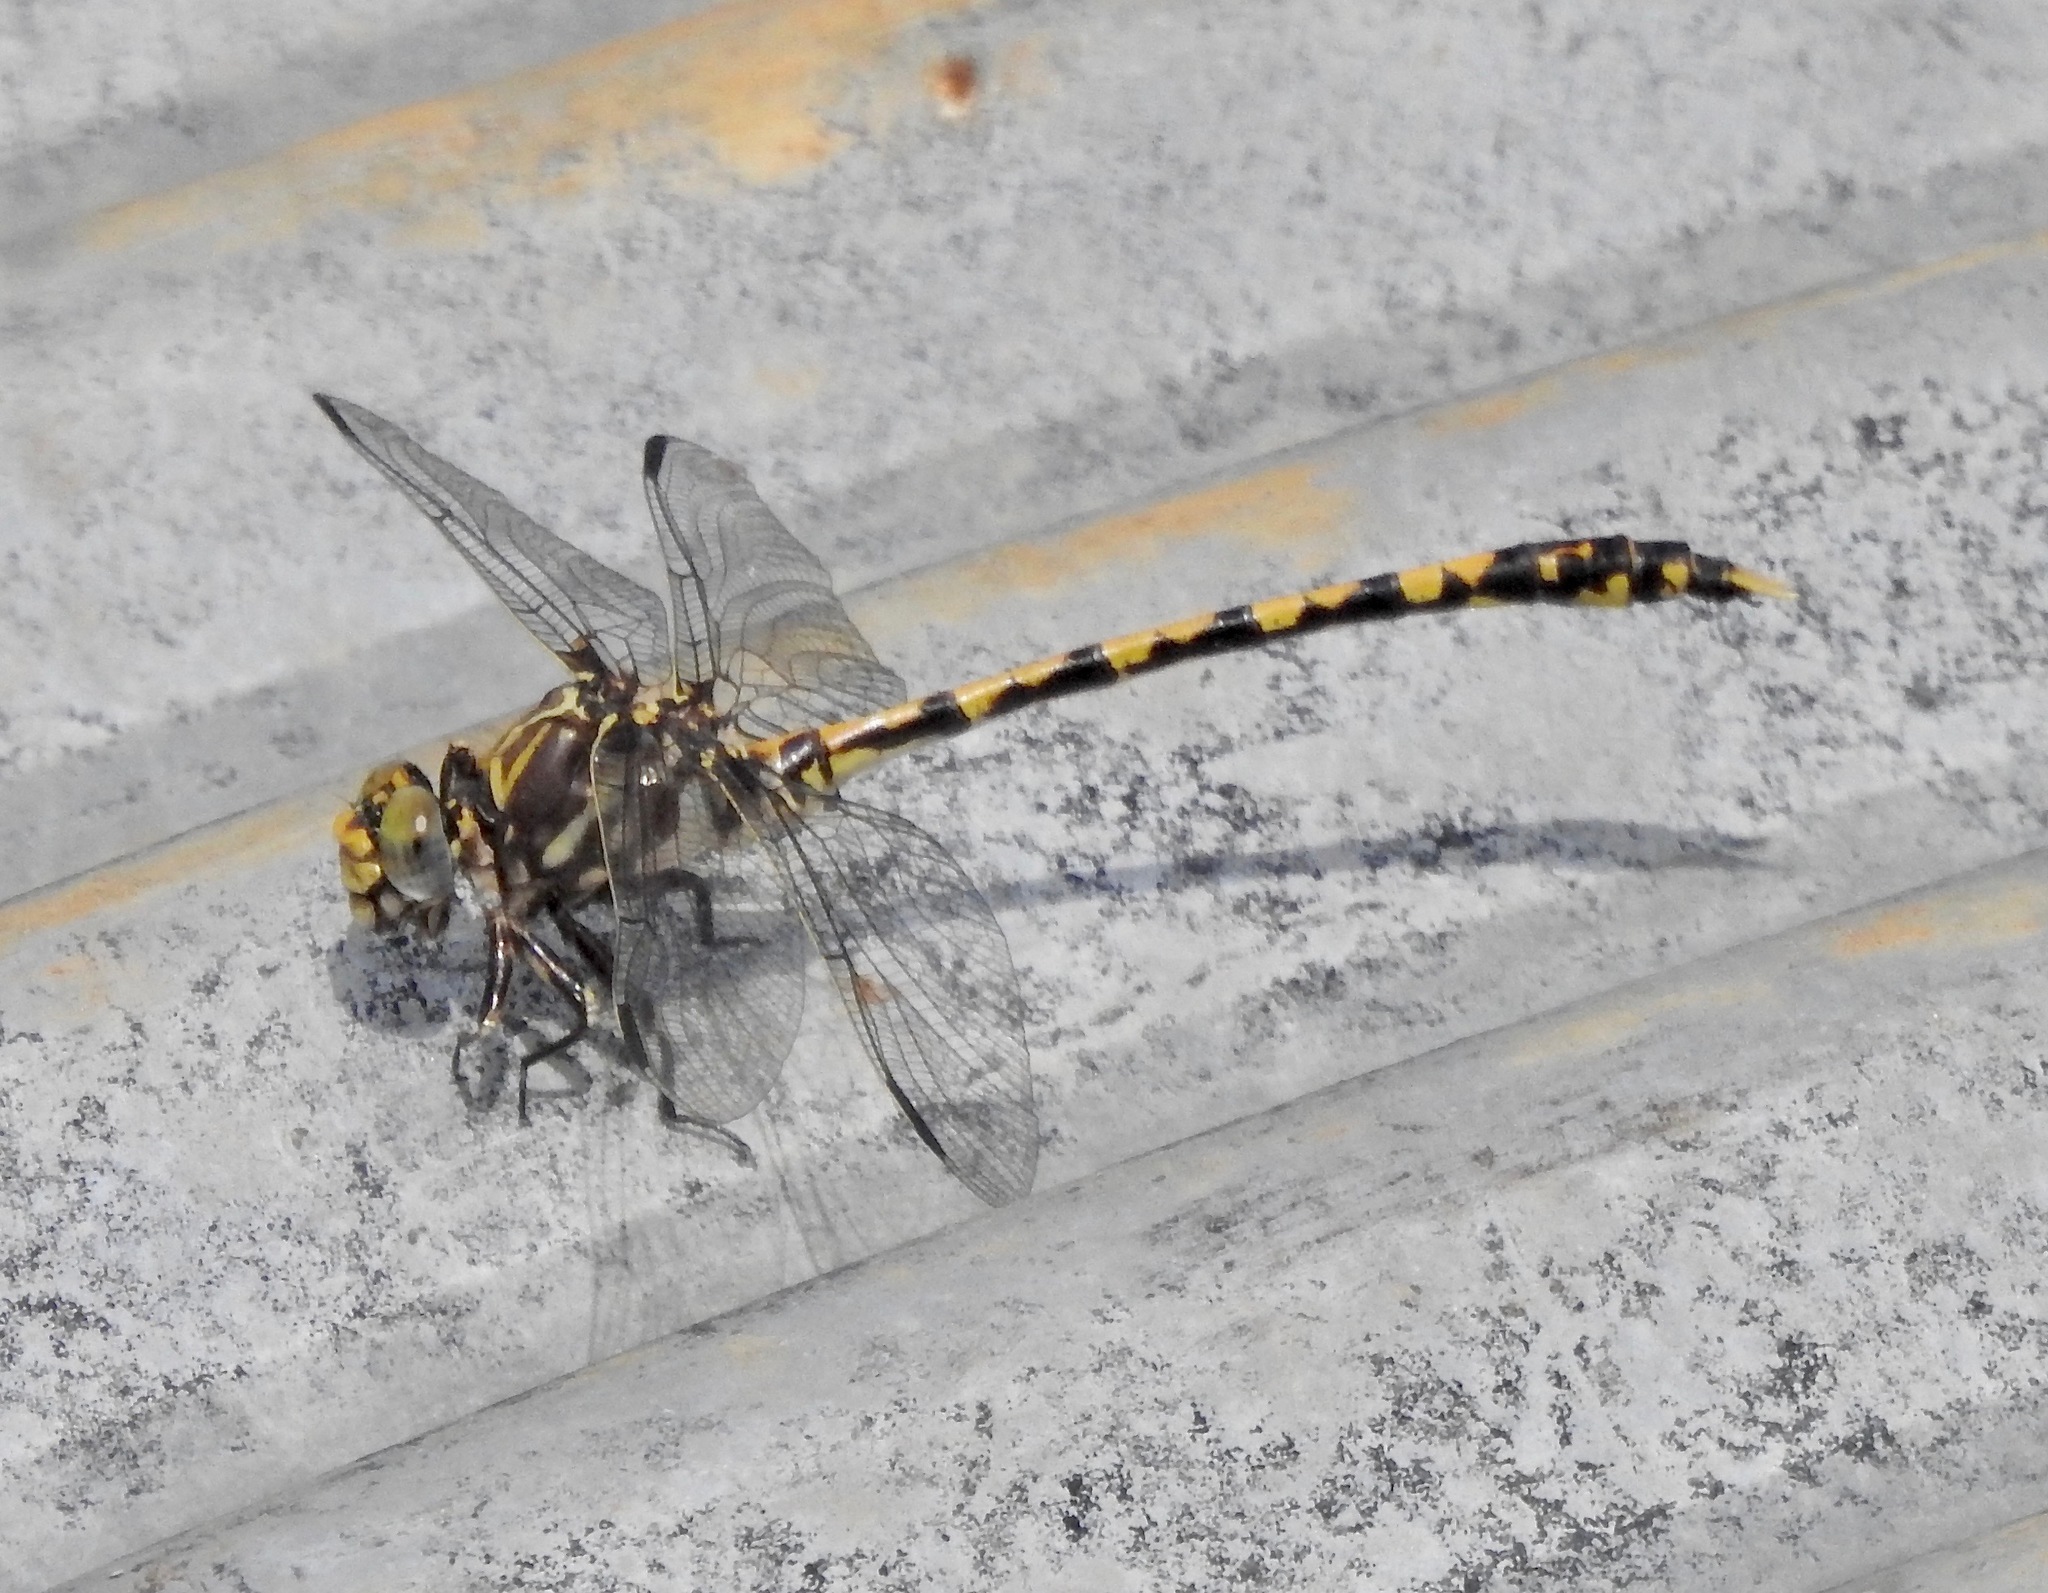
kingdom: Animalia
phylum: Arthropoda
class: Insecta
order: Odonata
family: Gomphidae
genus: Progomphus
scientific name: Progomphus bellei
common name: Belle's sanddragon
